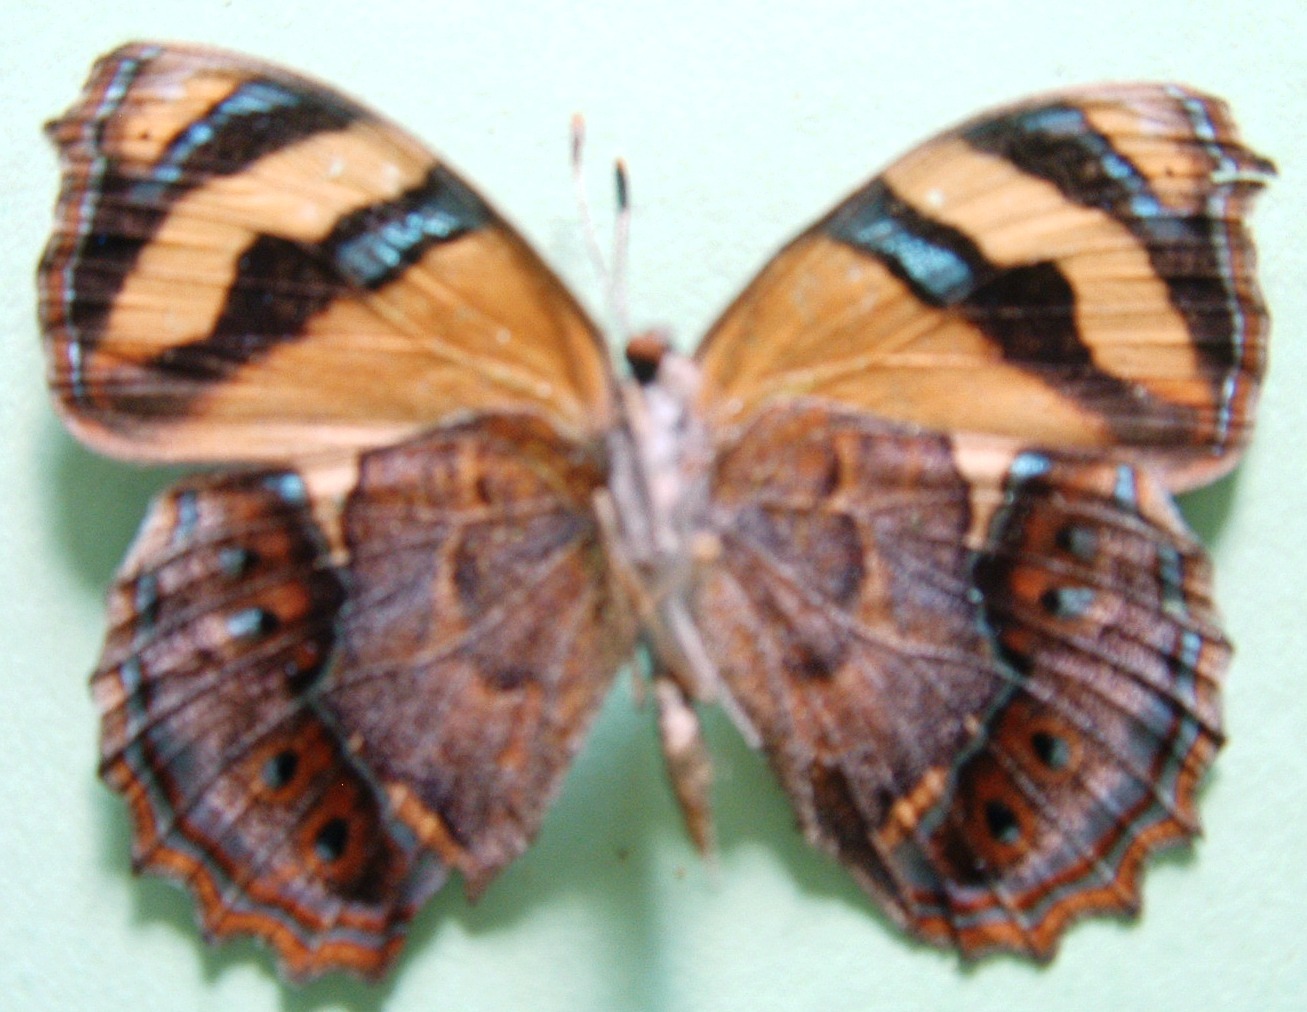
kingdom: Animalia
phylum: Arthropoda
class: Insecta
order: Lepidoptera
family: Nymphalidae
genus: Bolboneura
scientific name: Bolboneura sylphis
